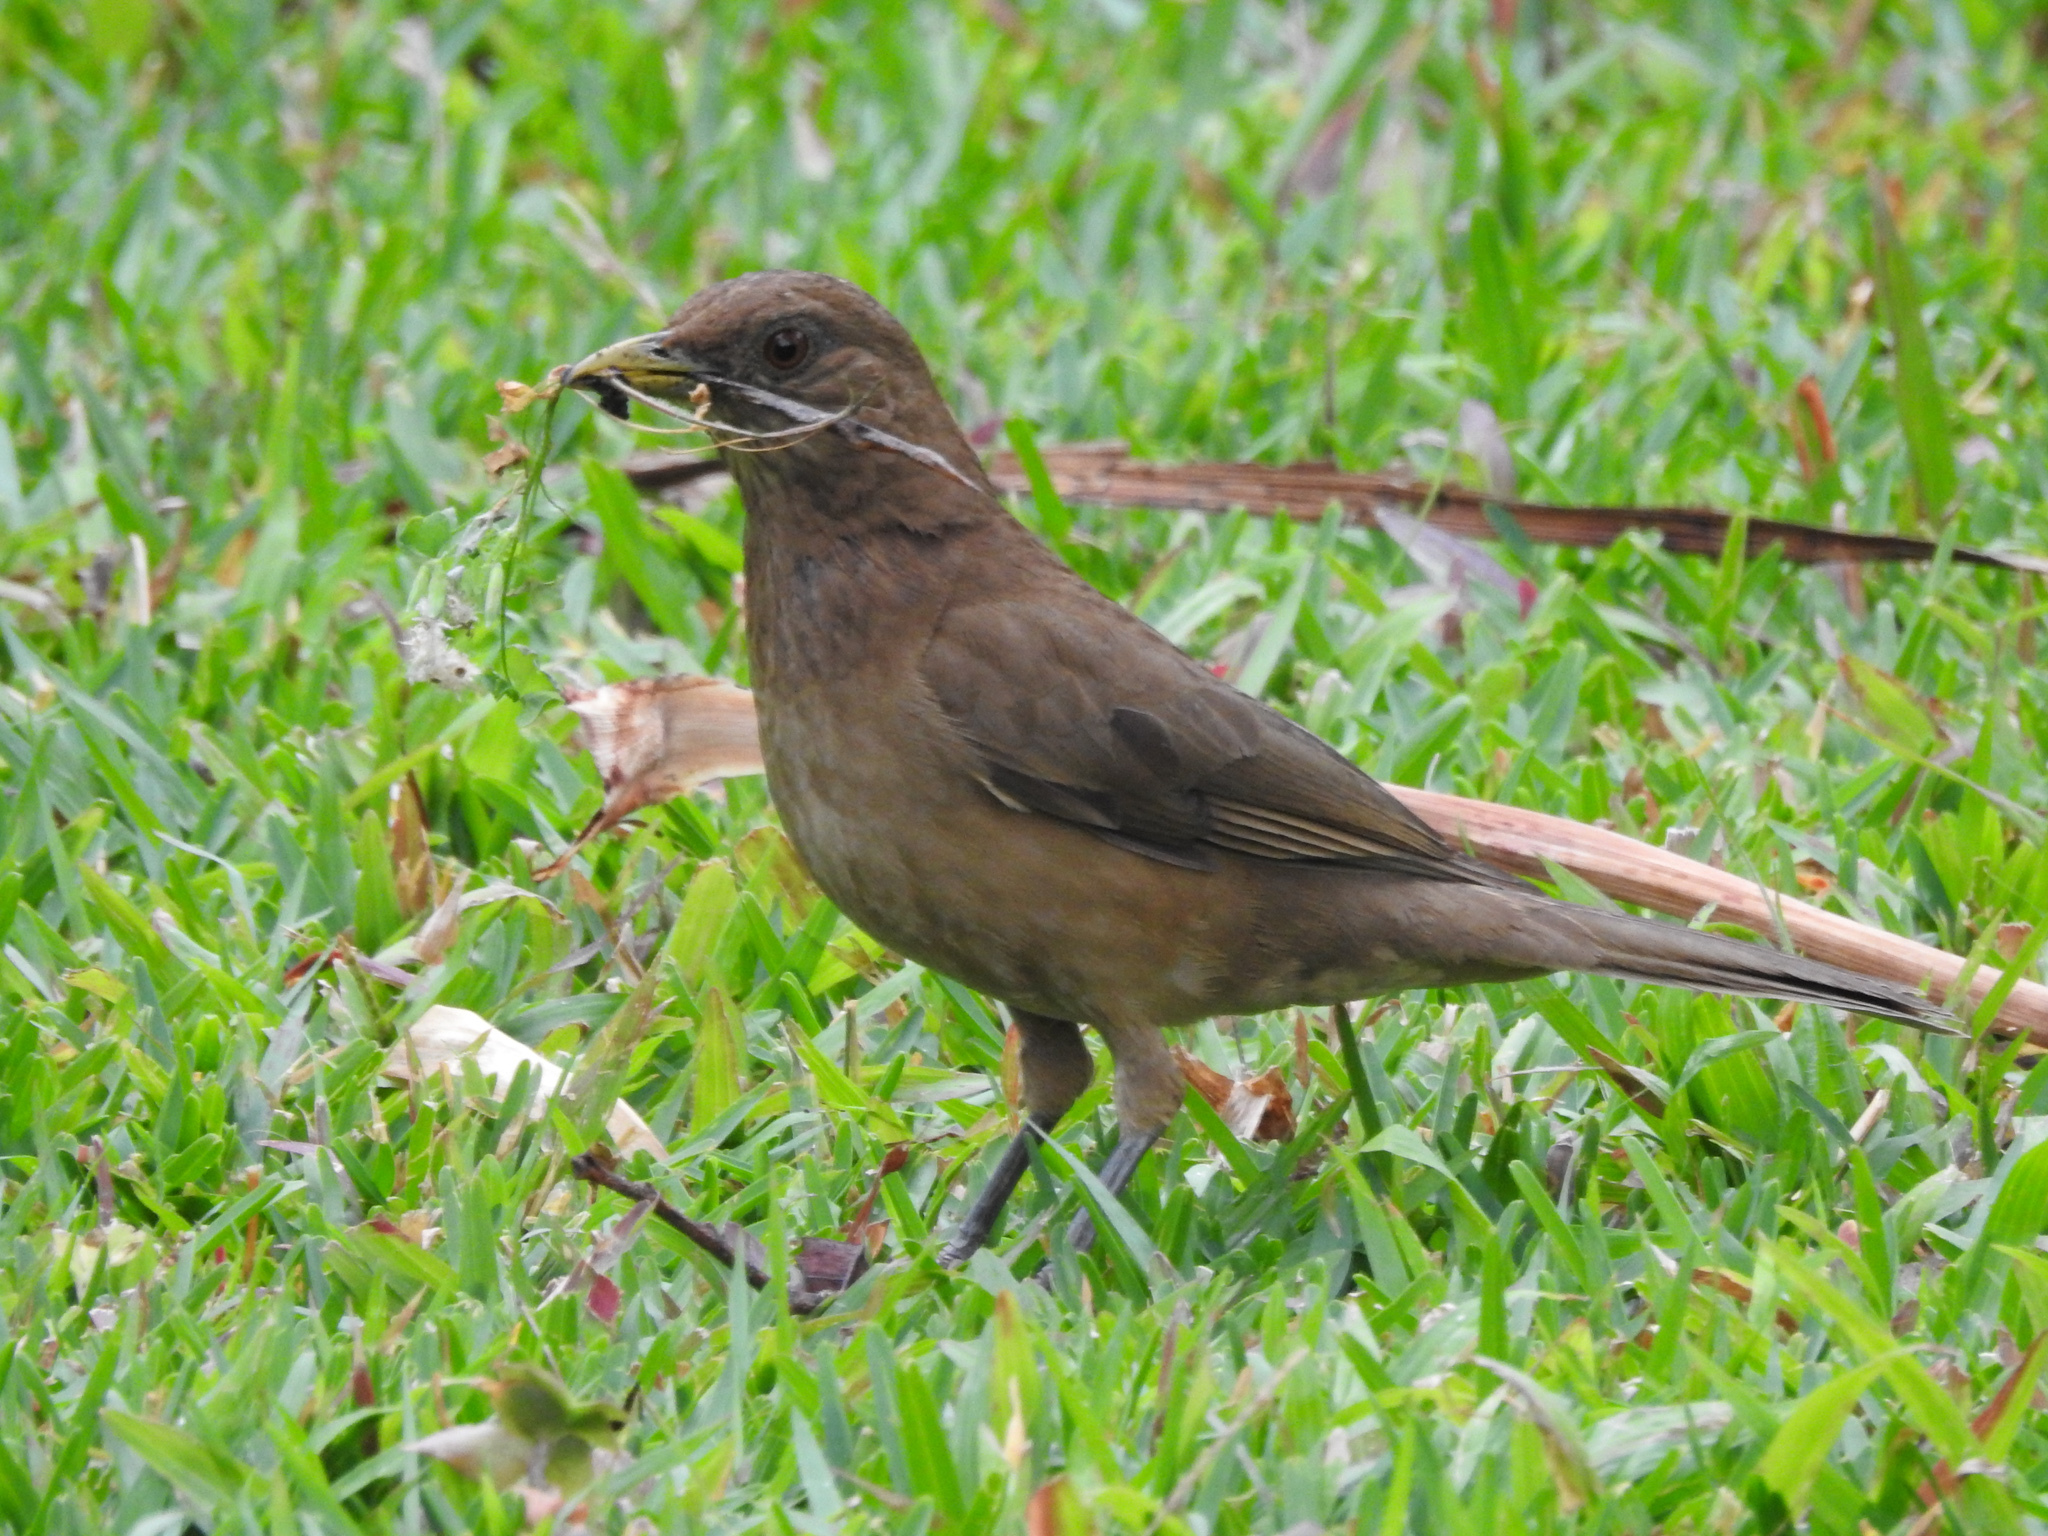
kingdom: Animalia
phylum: Chordata
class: Aves
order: Passeriformes
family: Turdidae
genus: Turdus
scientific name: Turdus grayi
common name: Clay-colored thrush
